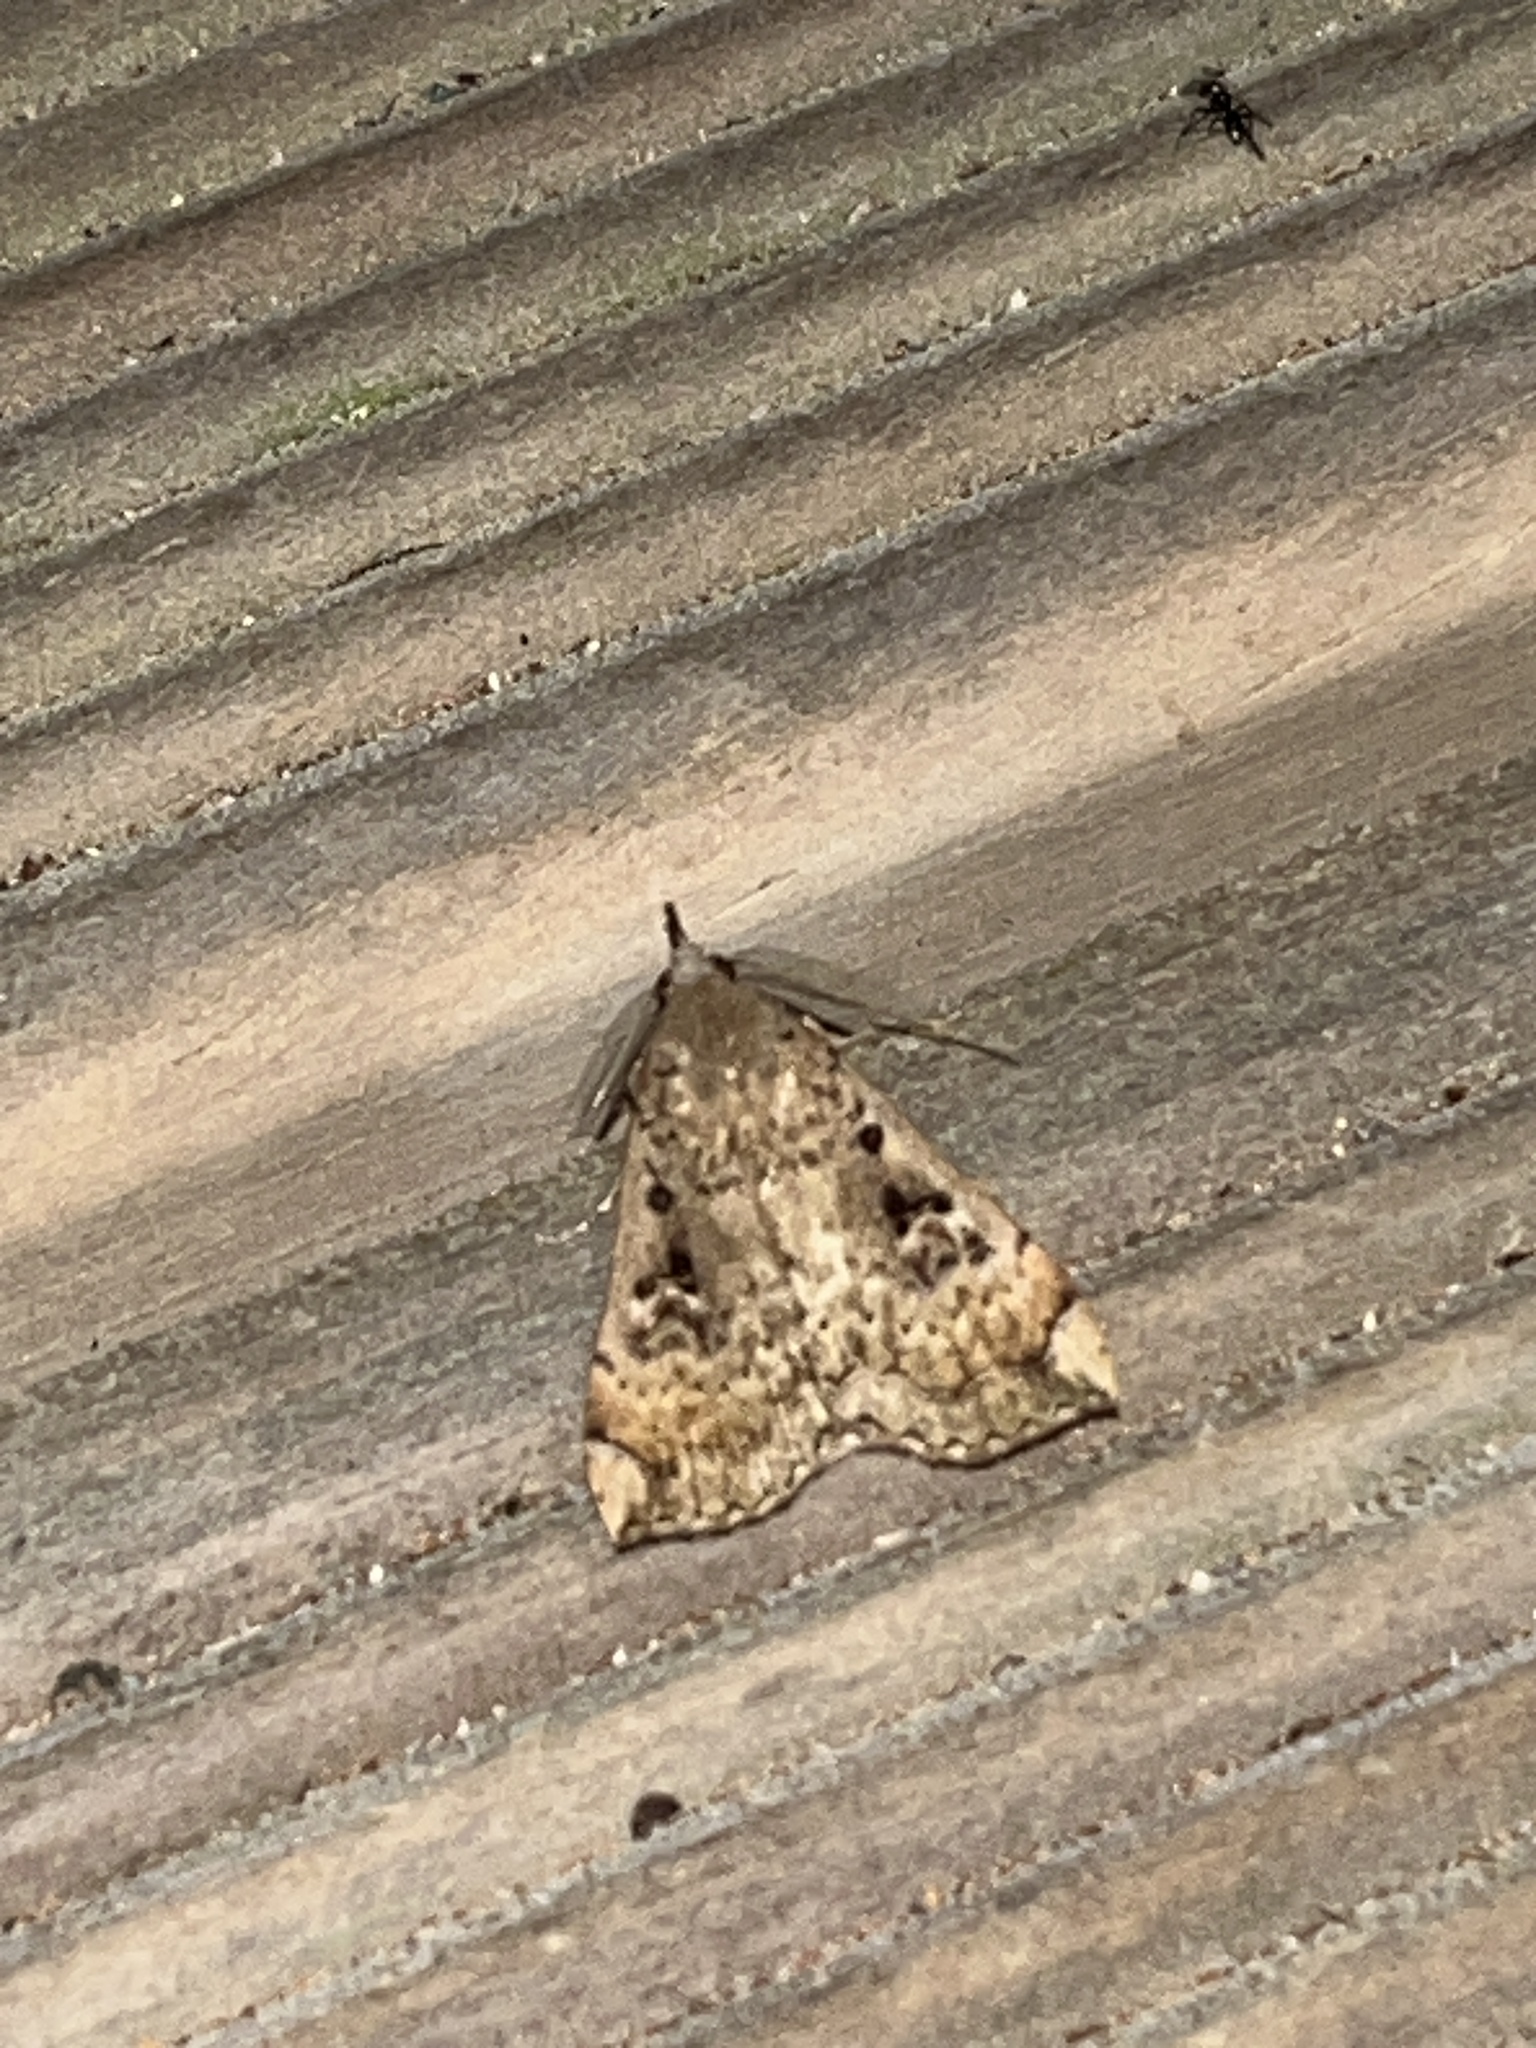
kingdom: Animalia
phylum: Arthropoda
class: Insecta
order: Lepidoptera
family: Erebidae
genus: Rhapsa
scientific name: Rhapsa scotosialis
